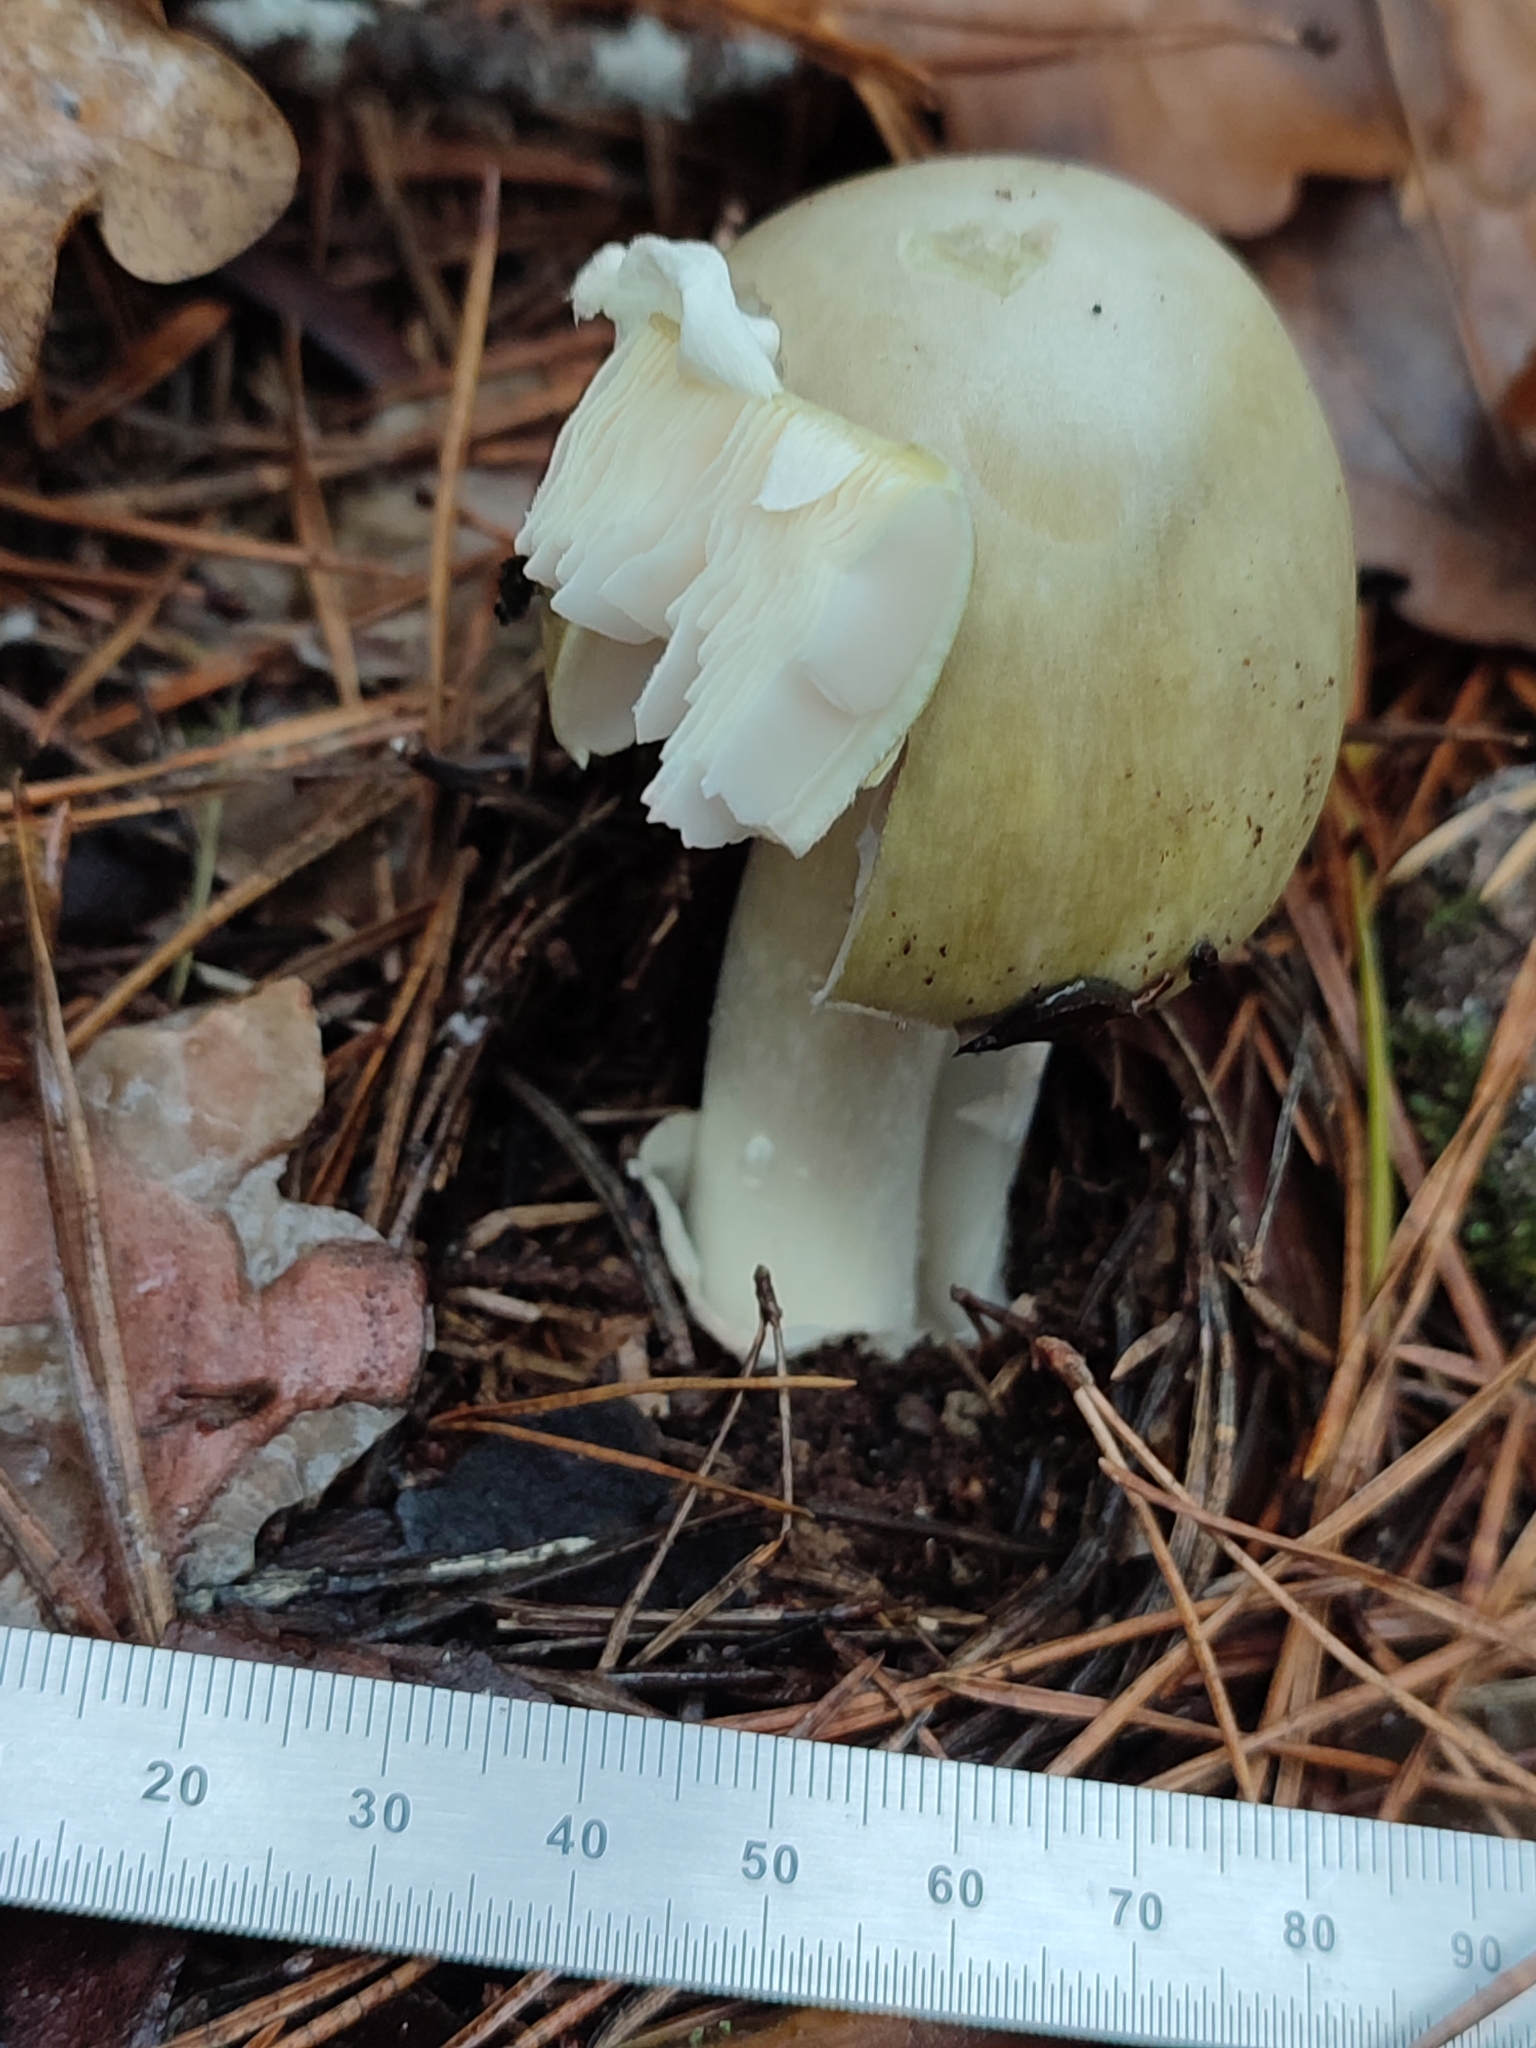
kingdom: Fungi
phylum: Basidiomycota
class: Agaricomycetes
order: Agaricales
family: Amanitaceae
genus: Amanita
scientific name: Amanita phalloides
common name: Death cap
